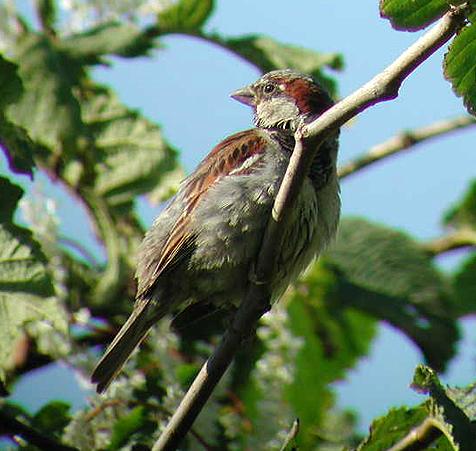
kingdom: Animalia
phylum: Chordata
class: Aves
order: Passeriformes
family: Passeridae
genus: Passer
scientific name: Passer domesticus
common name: House sparrow
